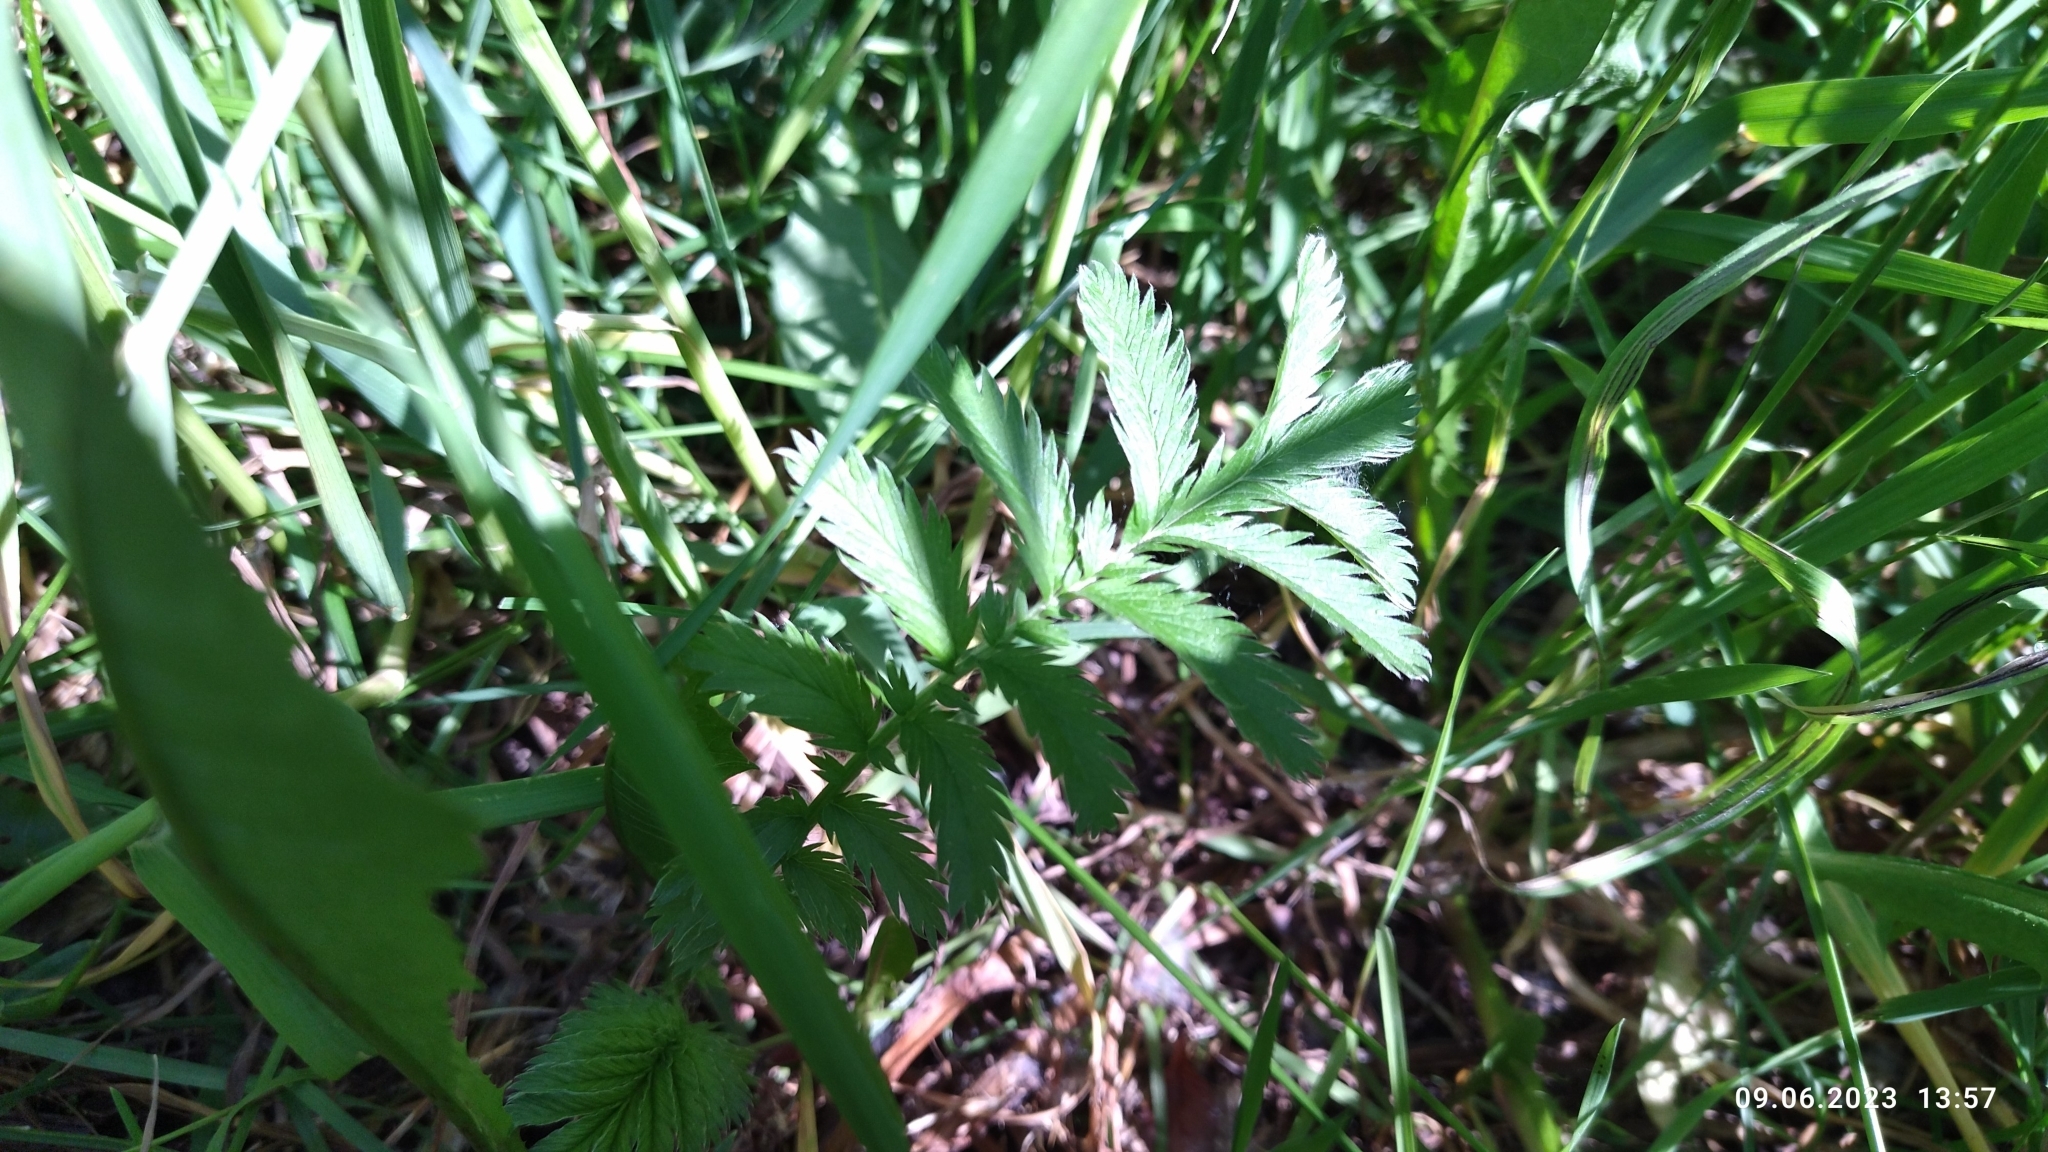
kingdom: Plantae
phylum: Tracheophyta
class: Magnoliopsida
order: Rosales
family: Rosaceae
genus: Argentina
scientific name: Argentina anserina
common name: Common silverweed
